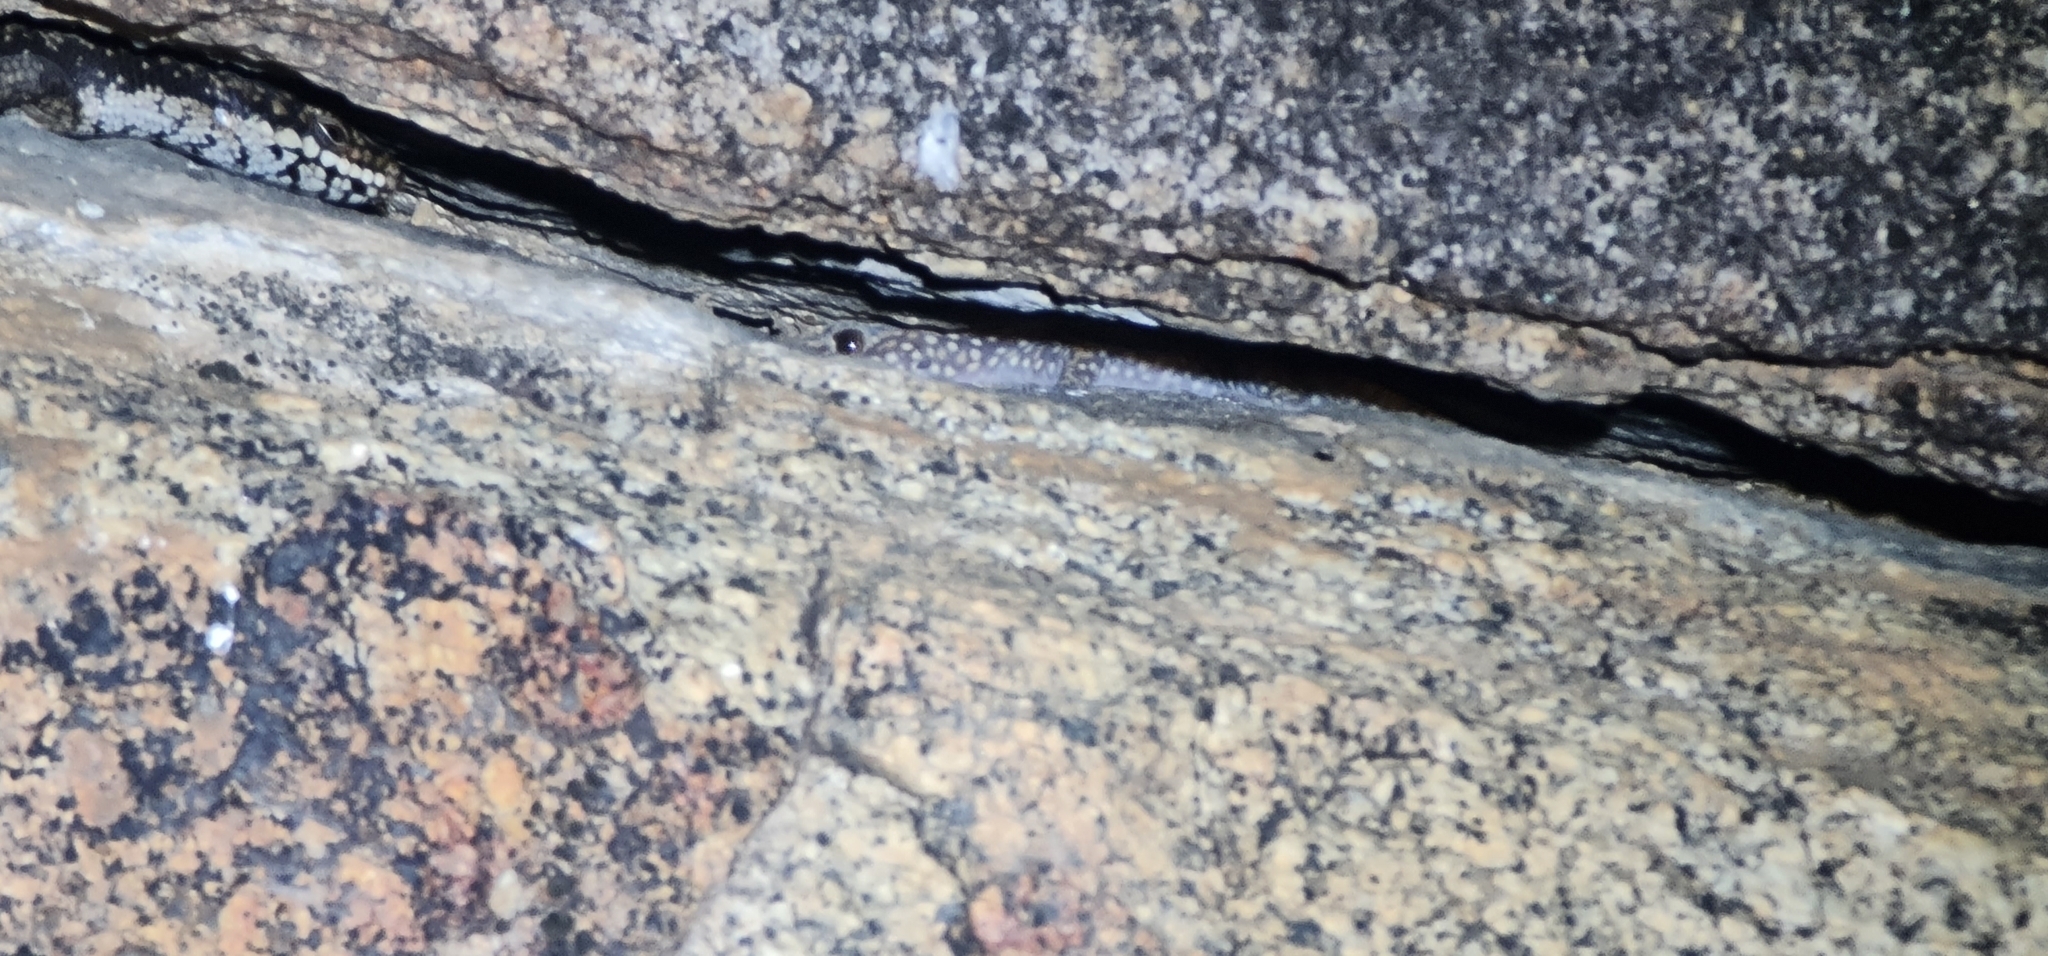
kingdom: Animalia
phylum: Chordata
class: Squamata
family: Diplodactylidae
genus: Oedura
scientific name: Oedura tryoni
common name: Southern spotted velvet gecko
